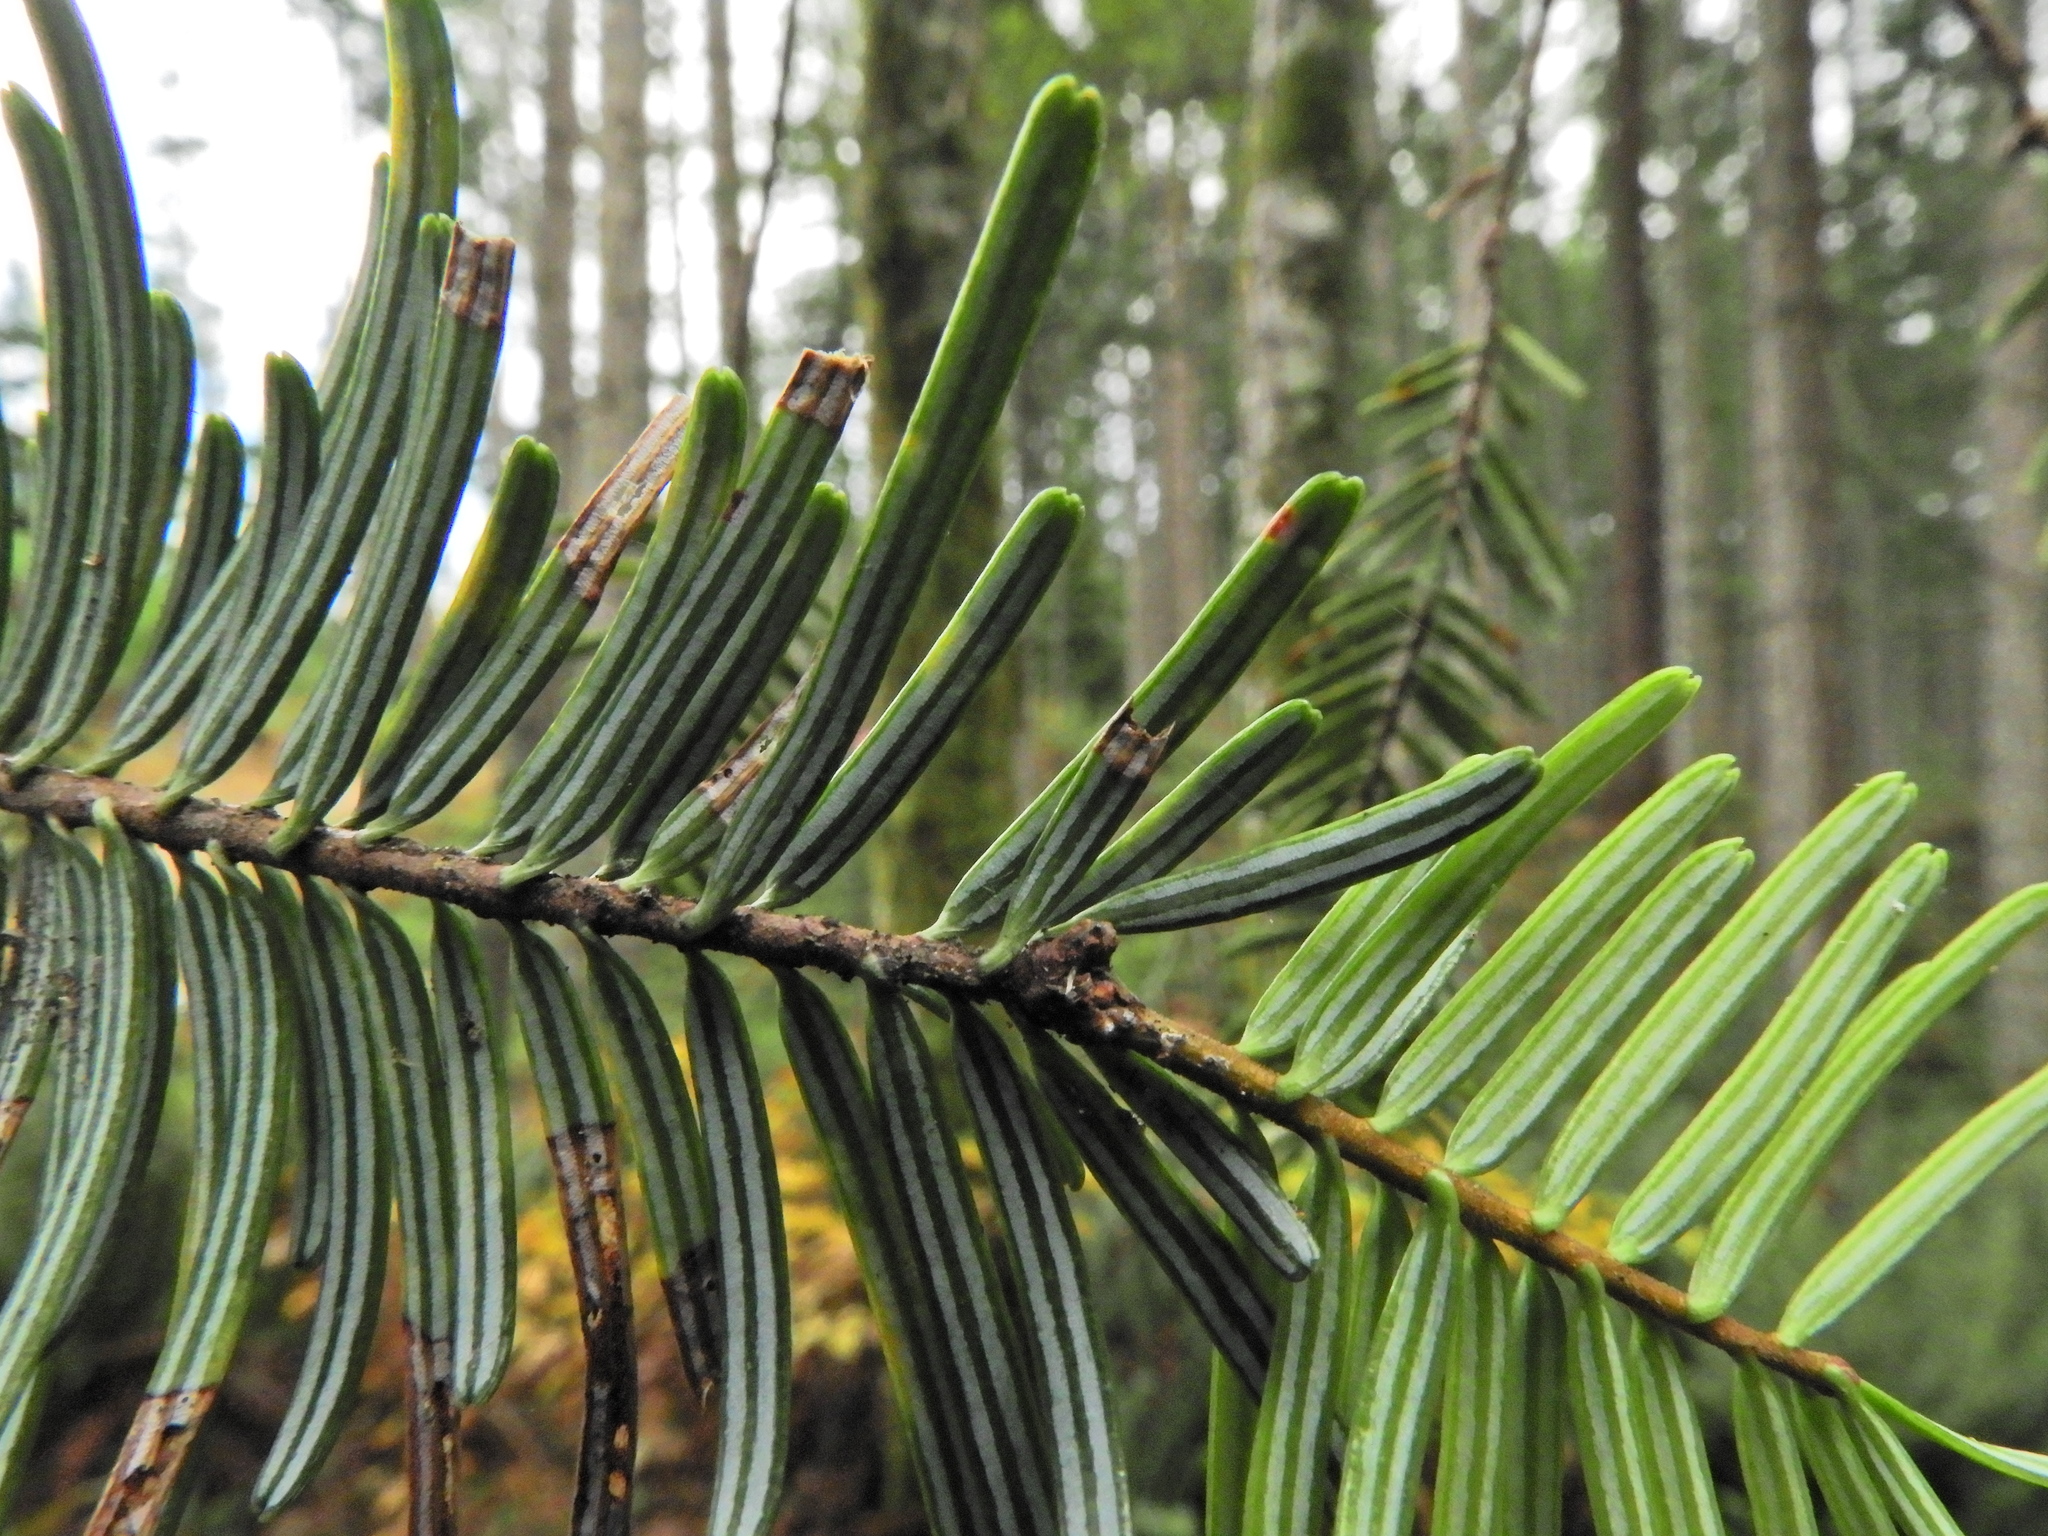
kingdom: Plantae
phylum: Tracheophyta
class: Pinopsida
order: Pinales
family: Pinaceae
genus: Abies
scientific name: Abies grandis
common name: Giant fir
